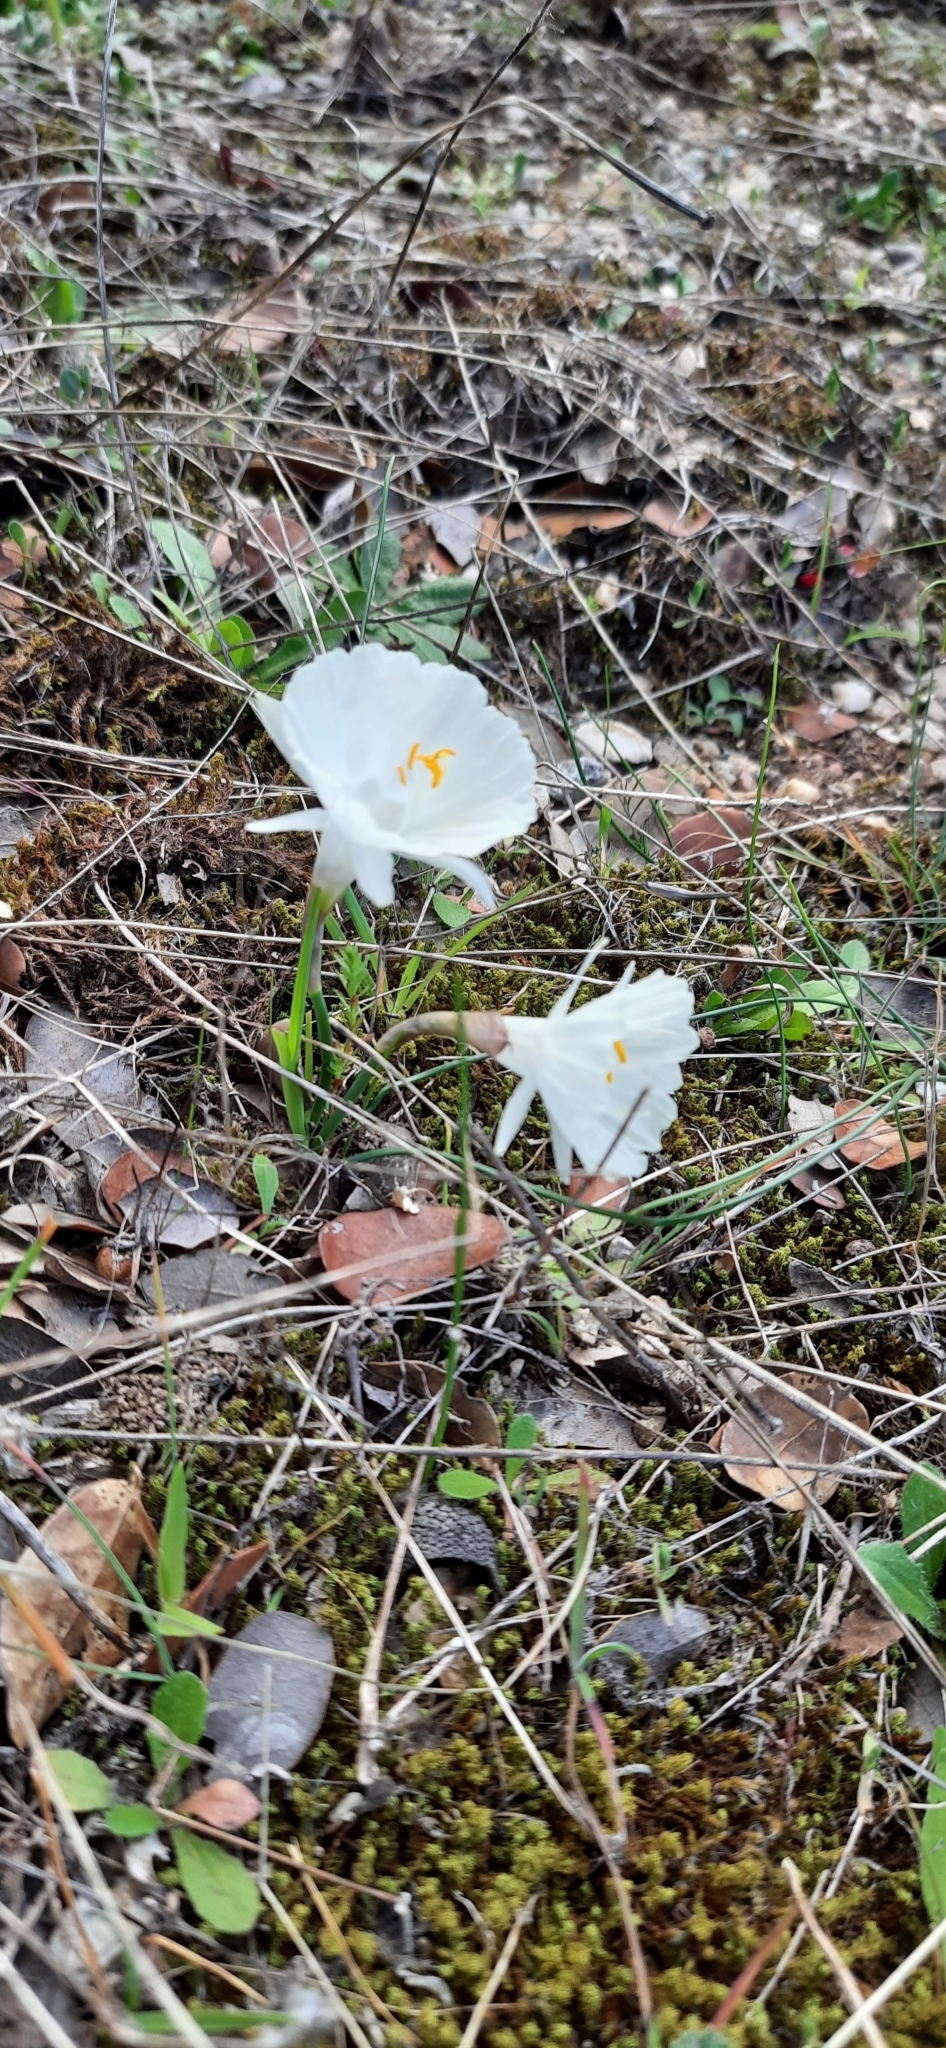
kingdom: Plantae
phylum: Tracheophyta
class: Liliopsida
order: Asparagales
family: Amaryllidaceae
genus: Narcissus
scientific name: Narcissus cantabricus
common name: White hoop petticoat daffodil
